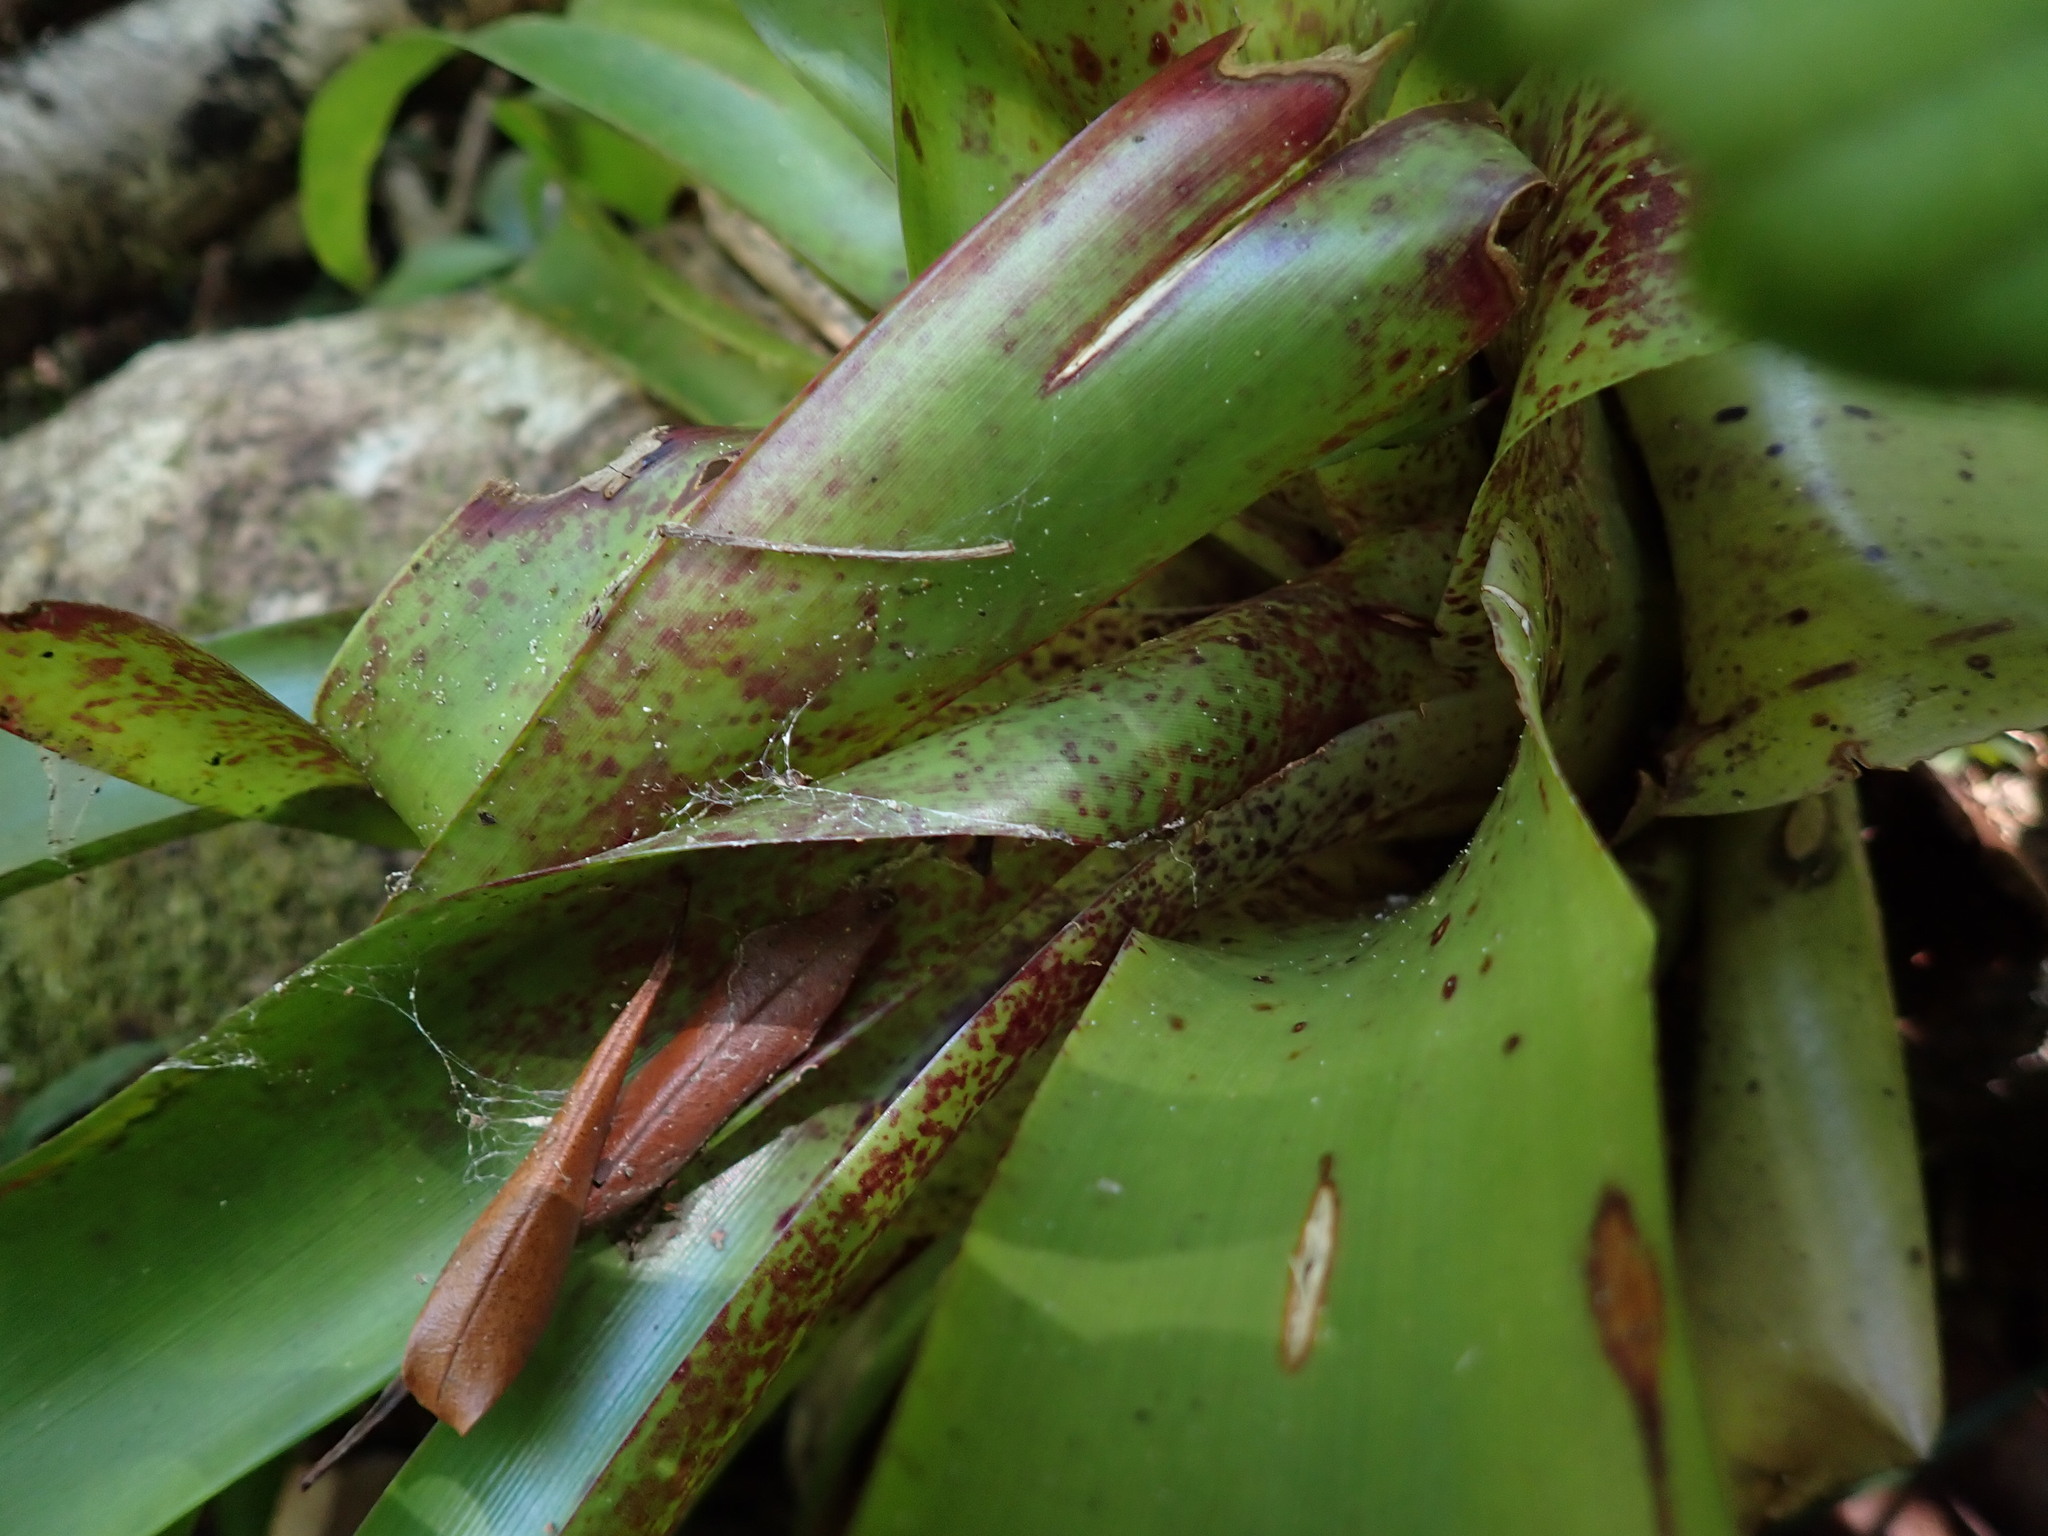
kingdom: Plantae
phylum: Tracheophyta
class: Liliopsida
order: Poales
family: Bromeliaceae
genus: Tillandsia
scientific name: Tillandsia guatemalensis
